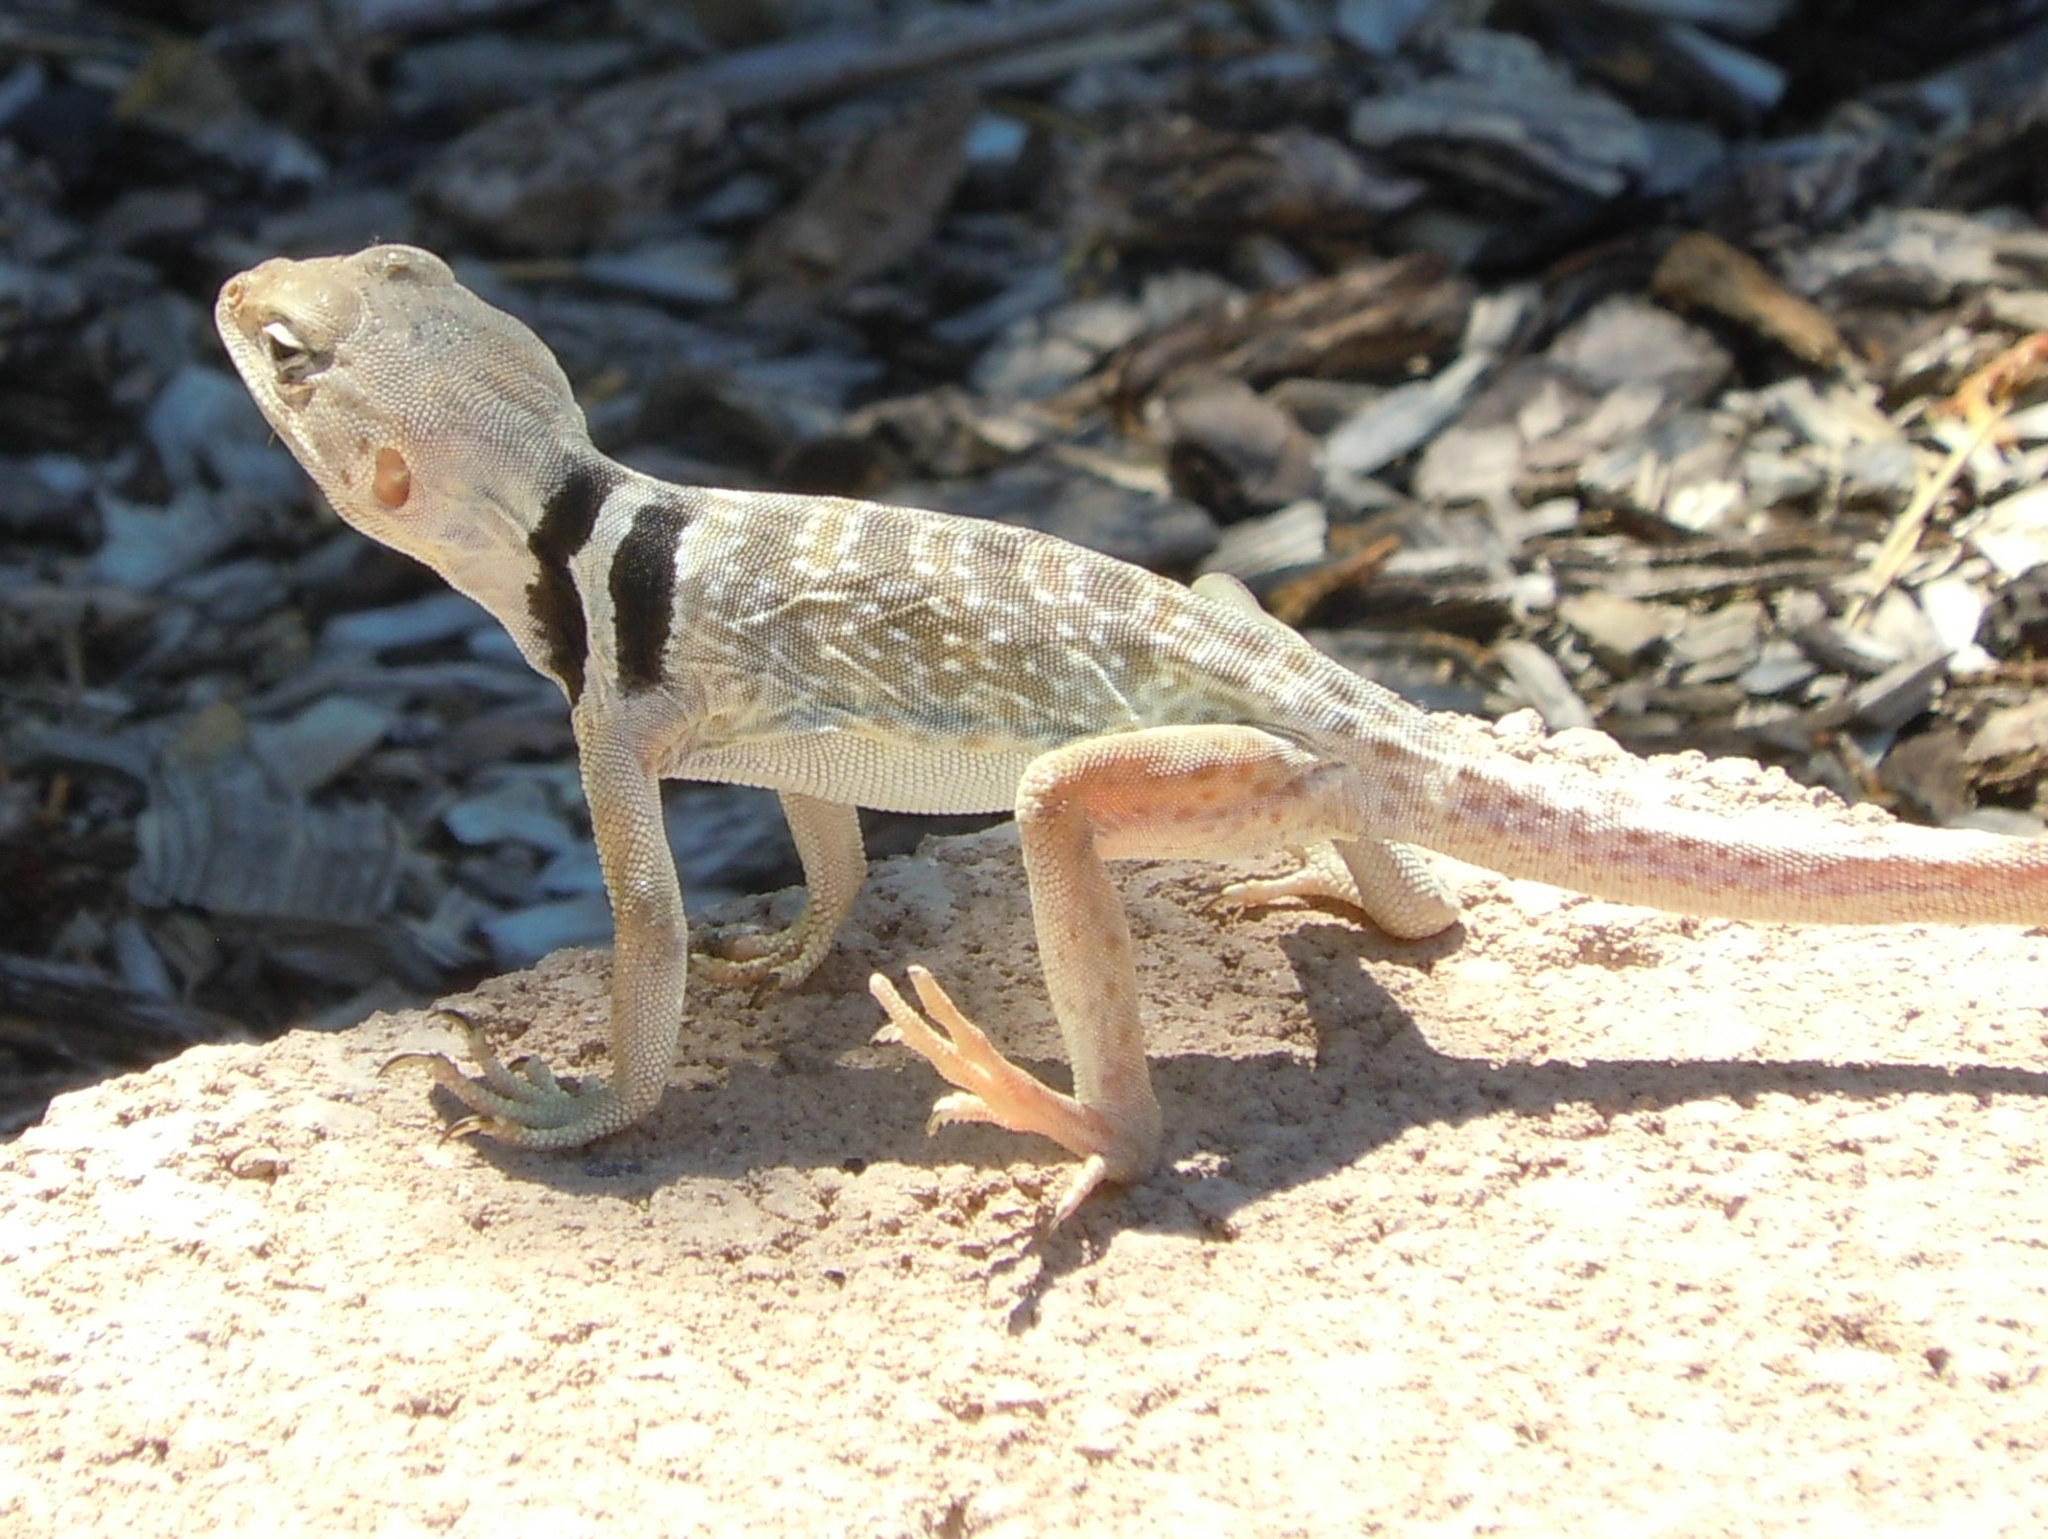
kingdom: Animalia
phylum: Chordata
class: Squamata
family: Crotaphytidae
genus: Crotaphytus
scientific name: Crotaphytus bicinctores
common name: Mojave black-collared lizard
